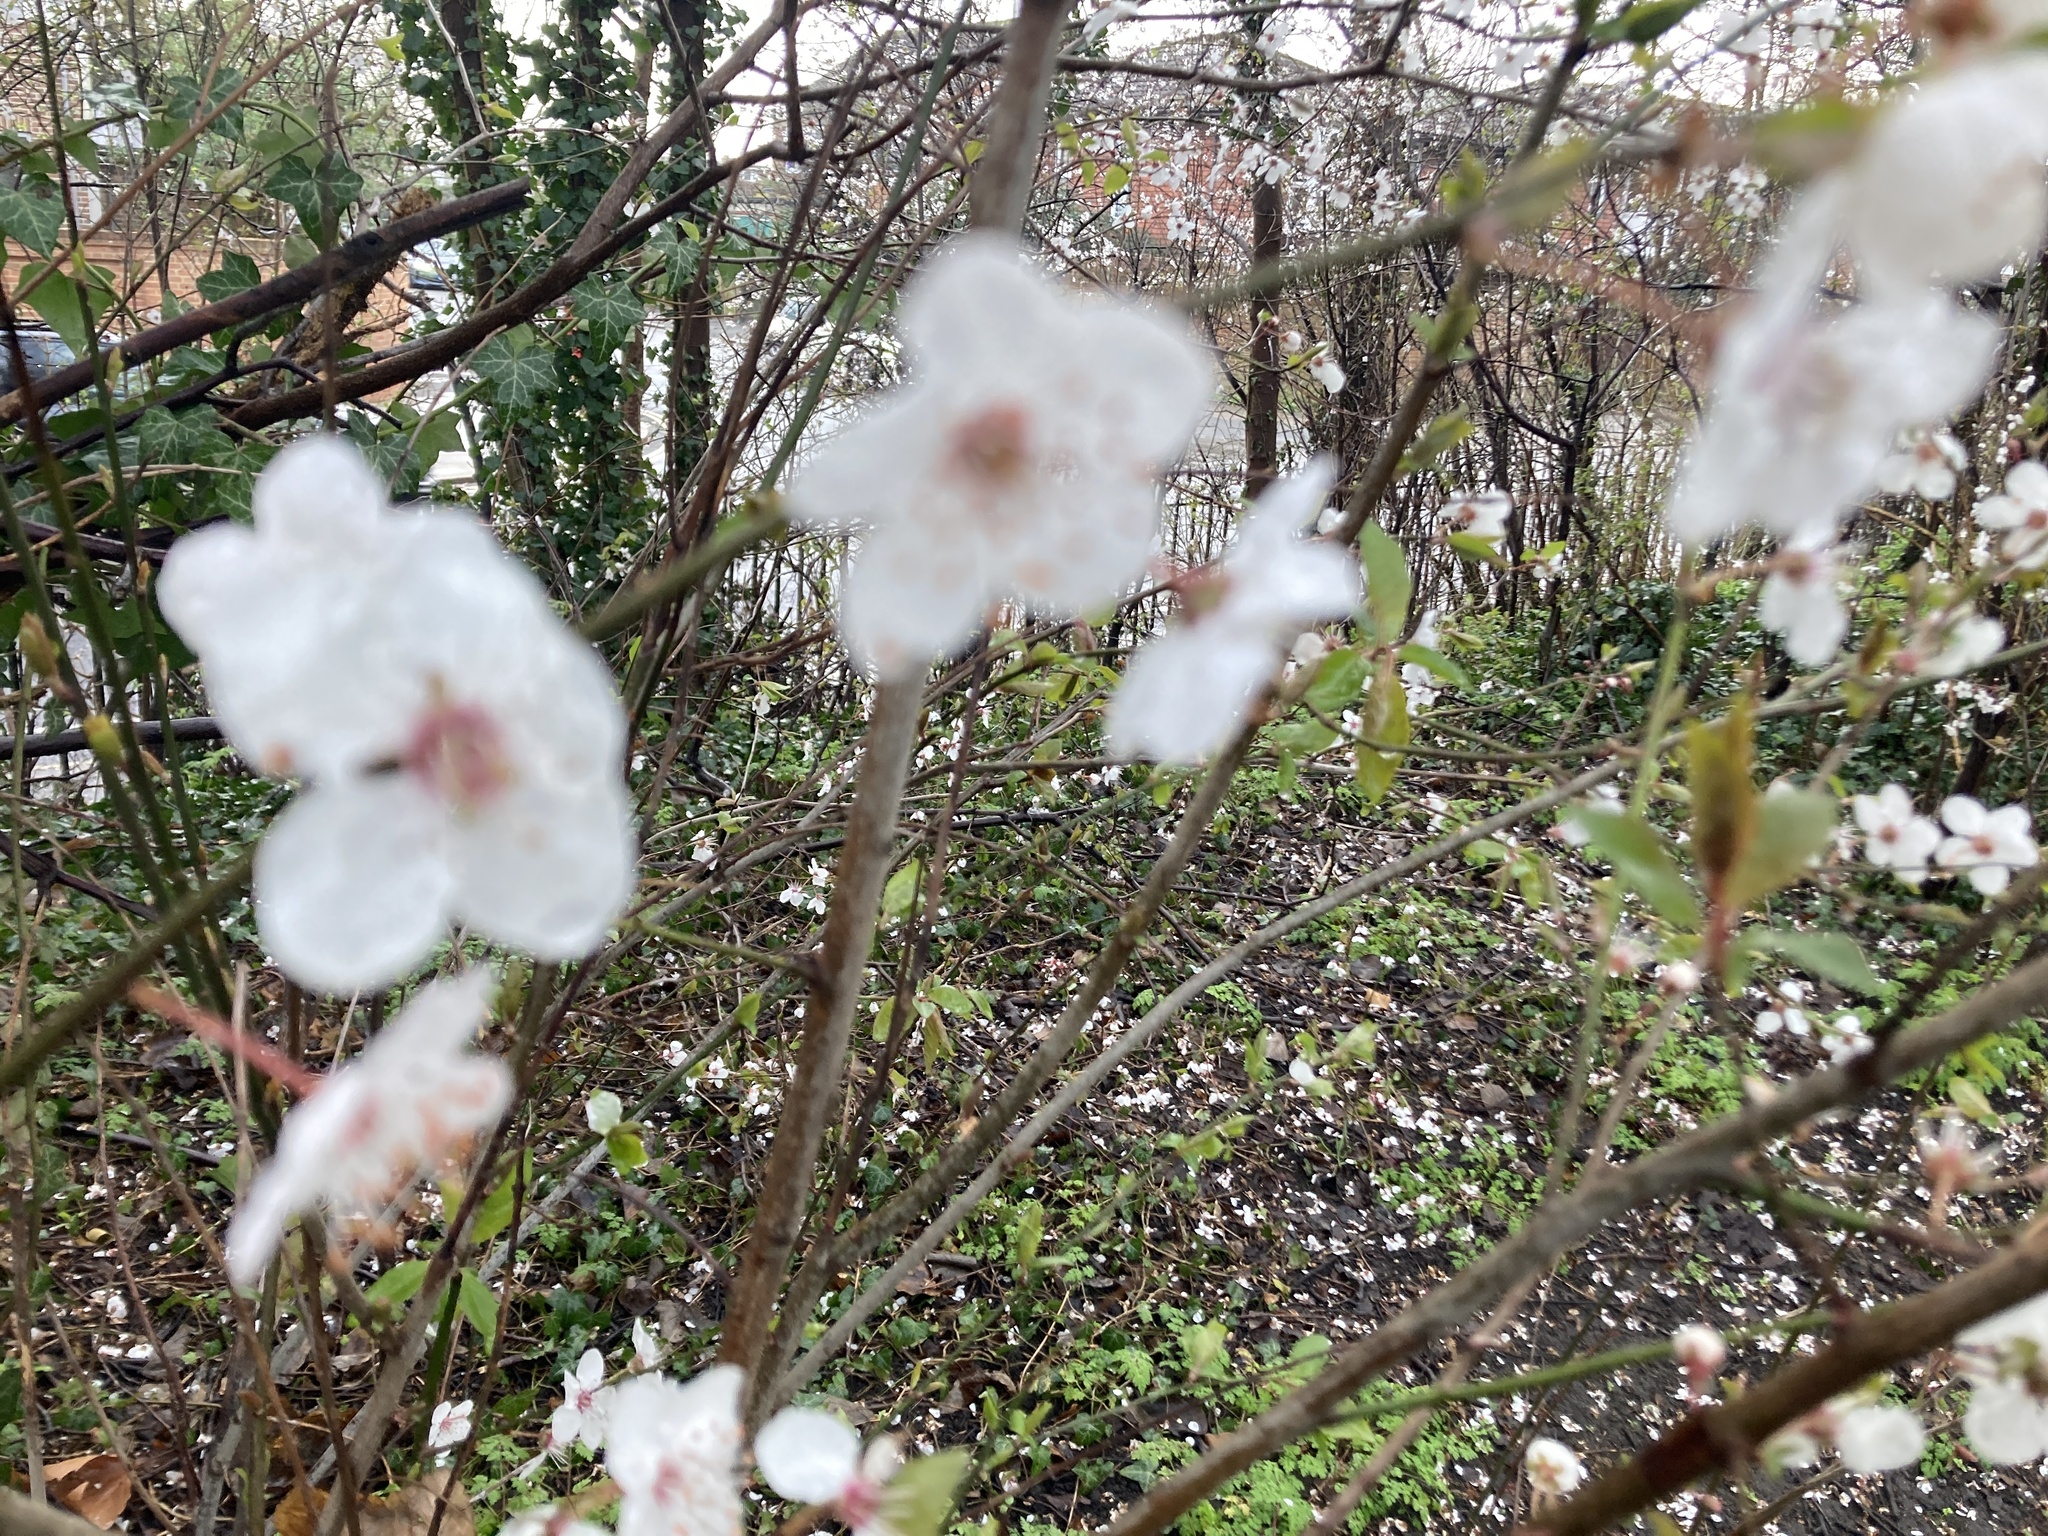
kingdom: Plantae
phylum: Tracheophyta
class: Magnoliopsida
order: Rosales
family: Rosaceae
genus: Prunus
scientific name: Prunus cerasifera
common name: Cherry plum
